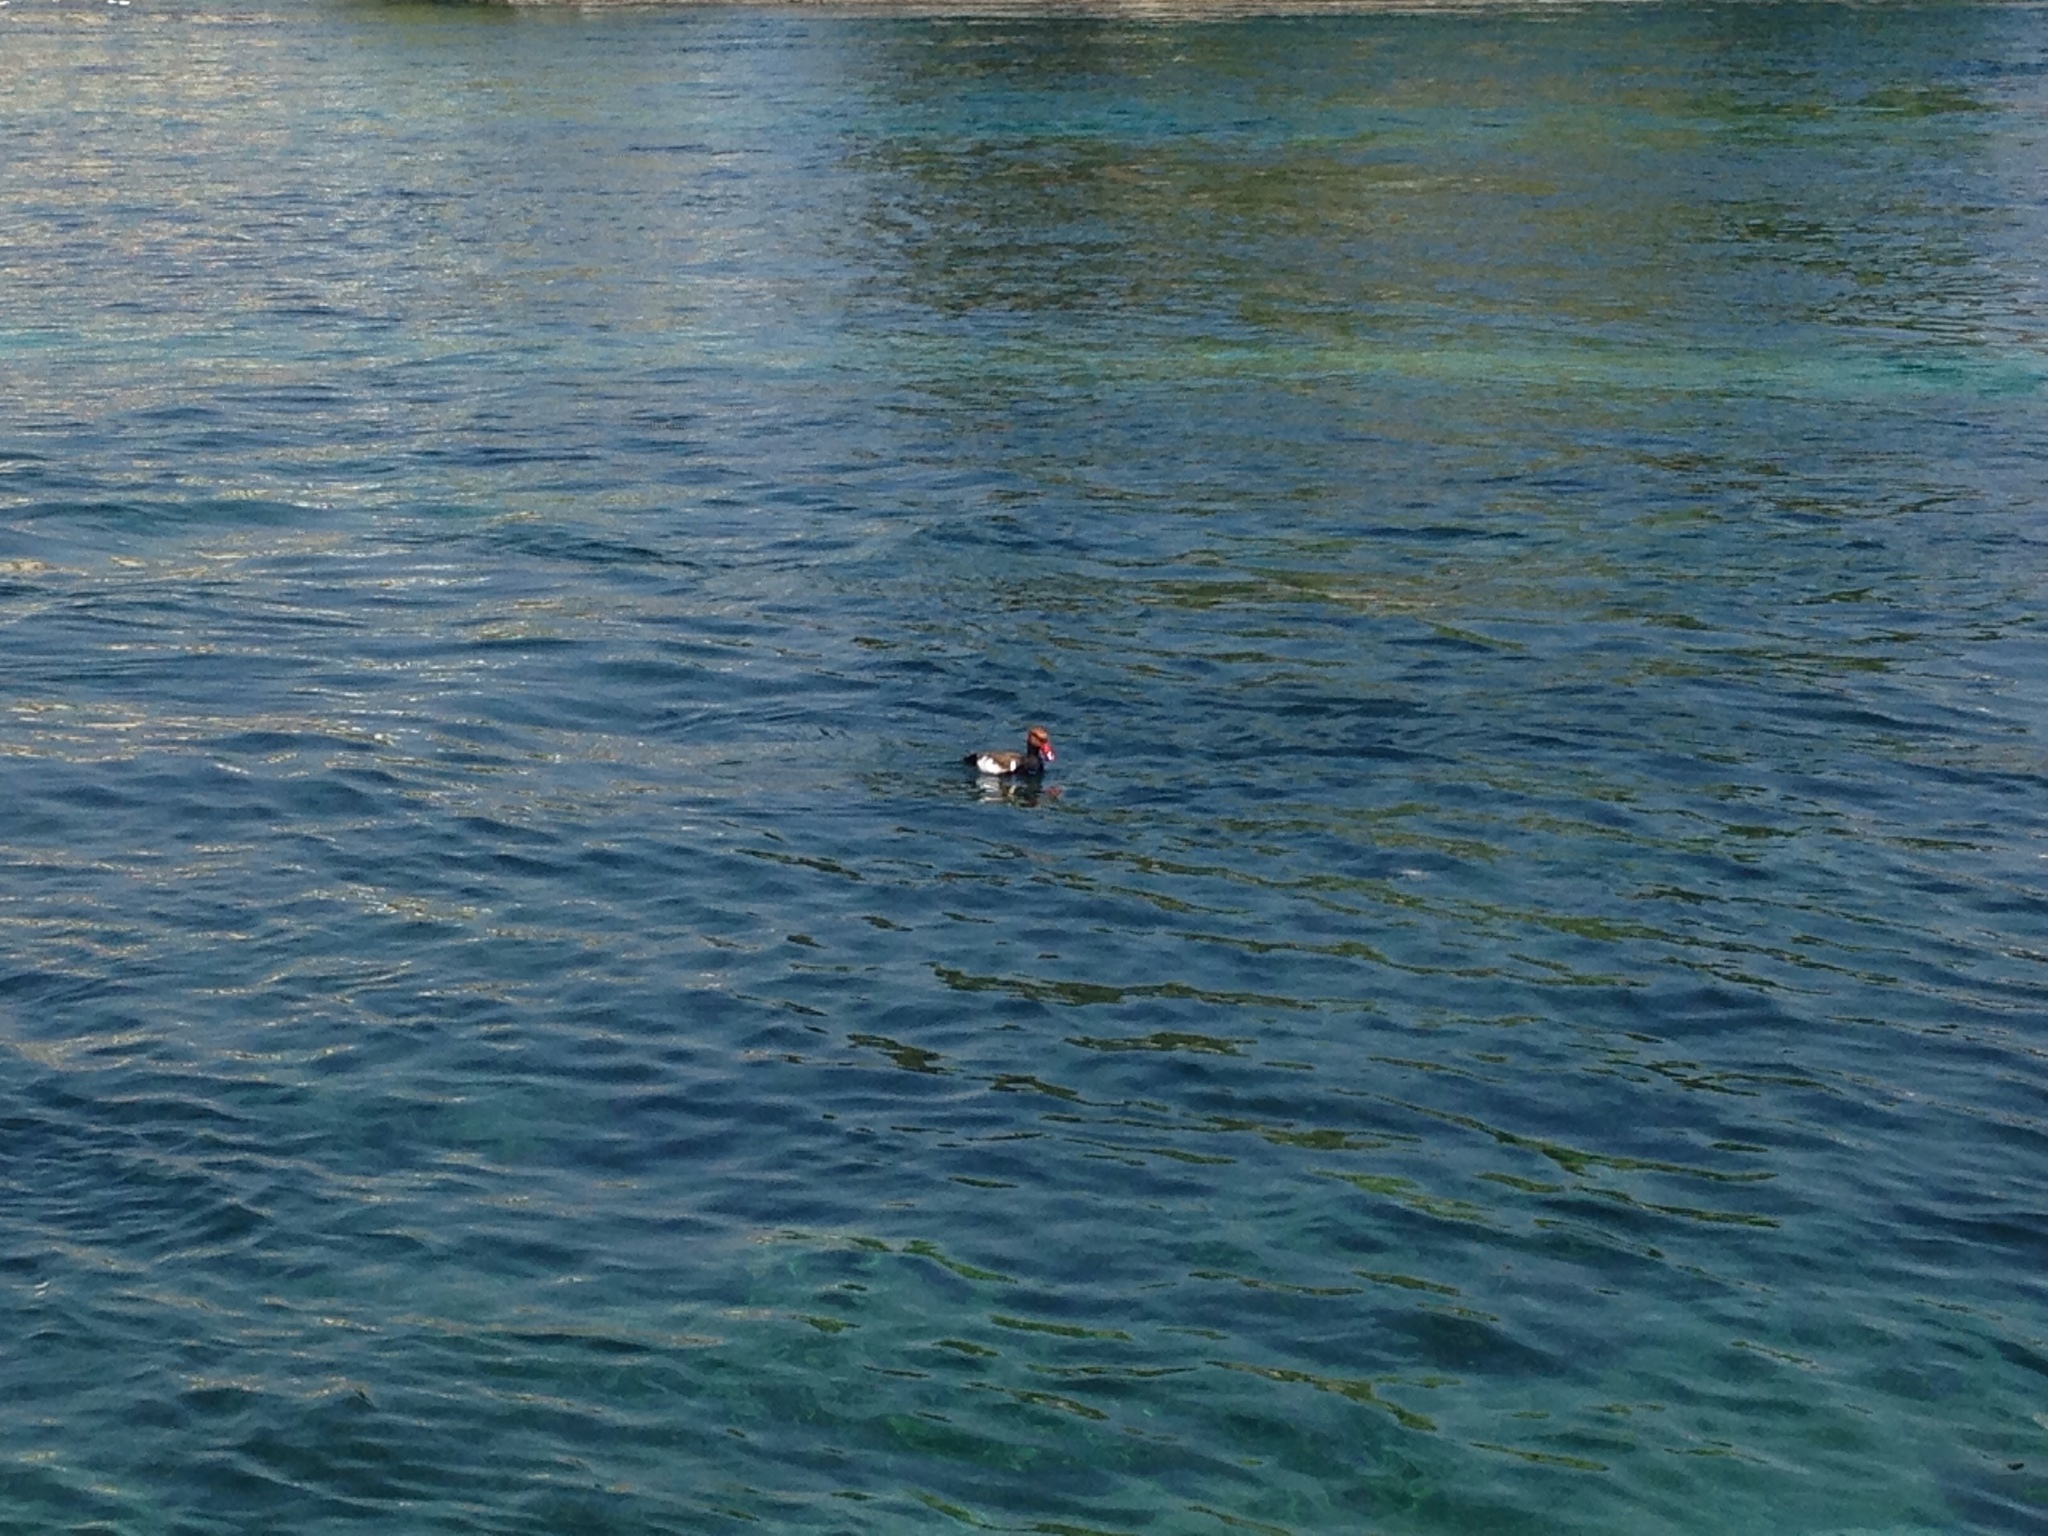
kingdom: Animalia
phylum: Chordata
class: Aves
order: Anseriformes
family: Anatidae
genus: Netta
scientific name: Netta rufina
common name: Red-crested pochard
